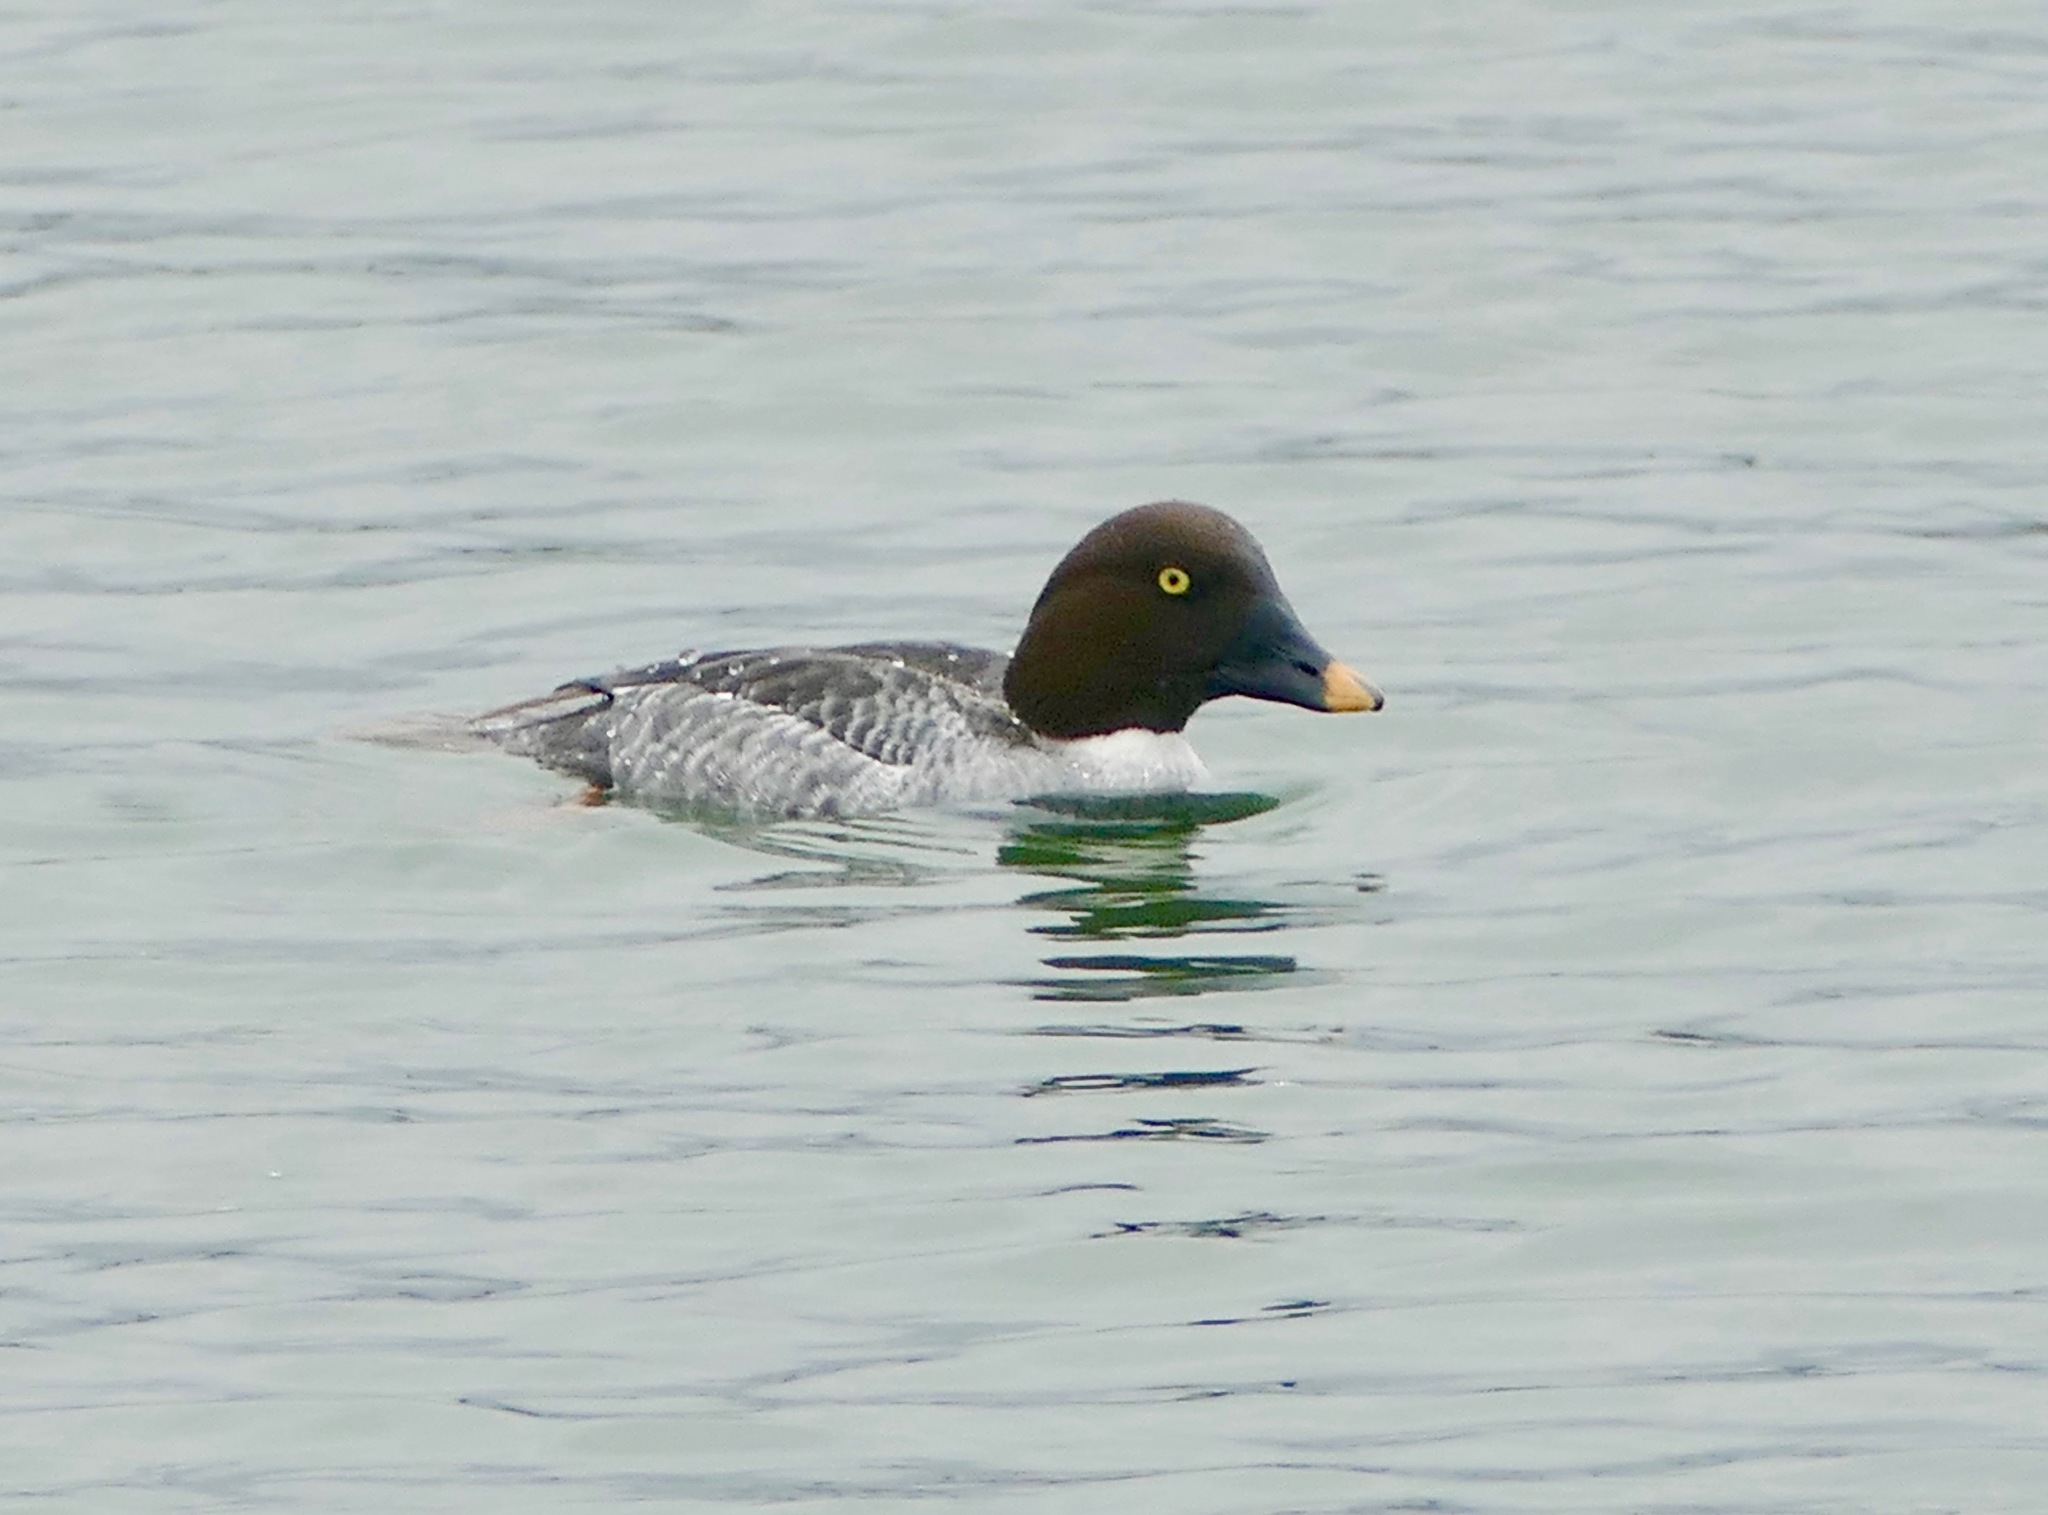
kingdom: Animalia
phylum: Chordata
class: Aves
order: Anseriformes
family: Anatidae
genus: Bucephala
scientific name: Bucephala clangula
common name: Common goldeneye
